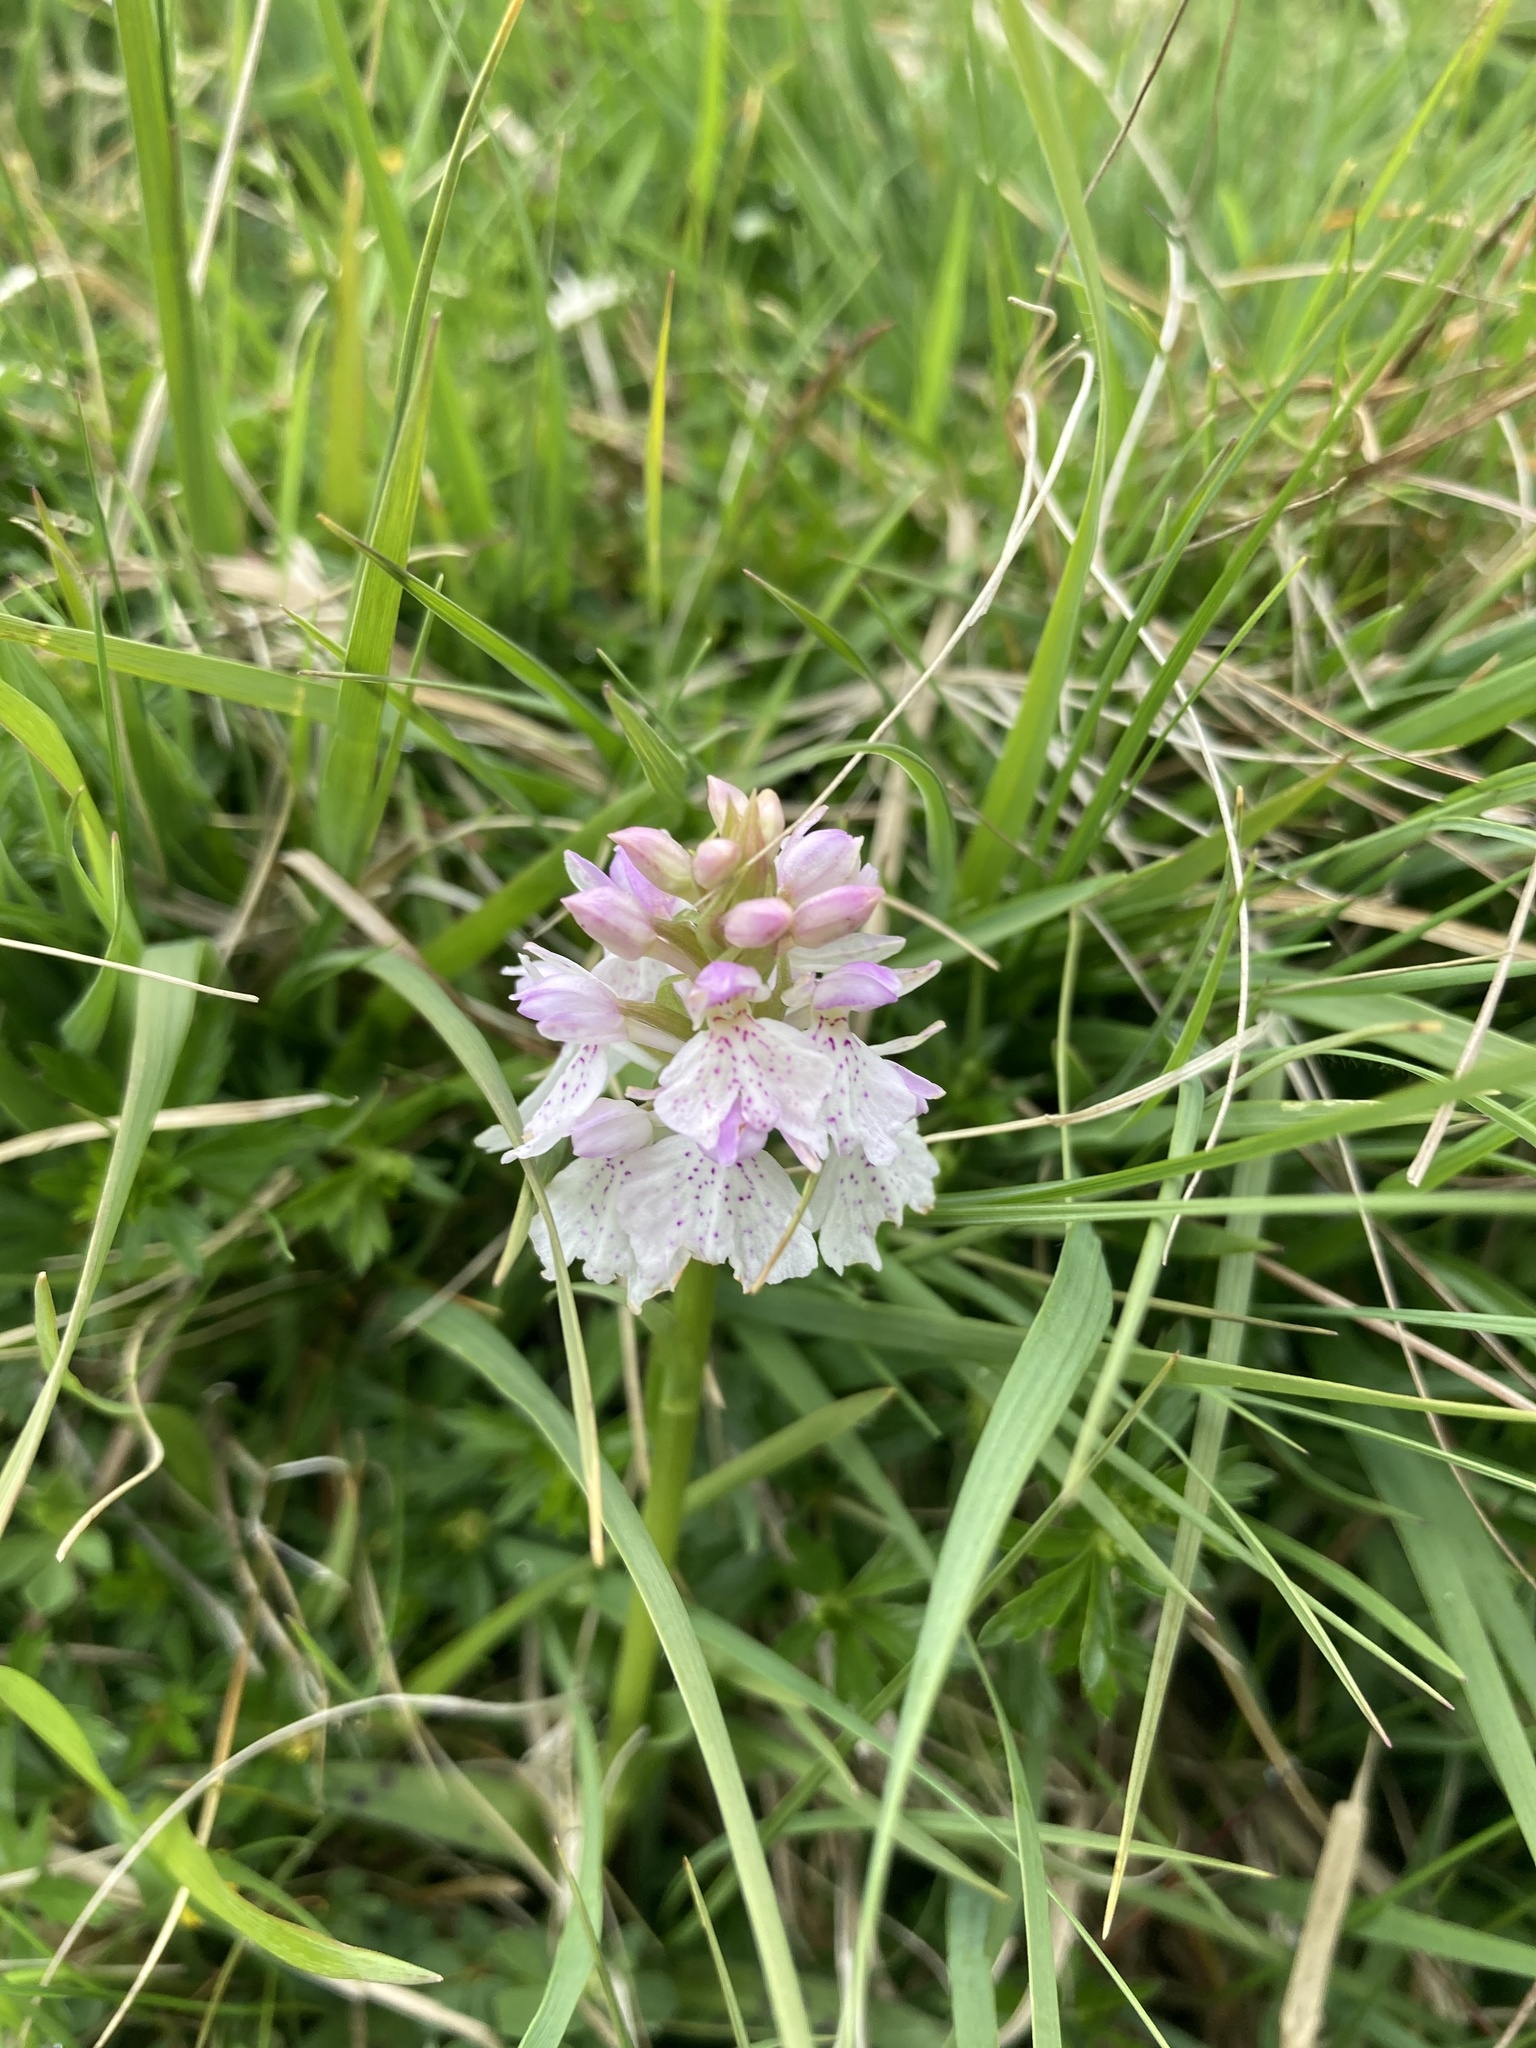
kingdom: Plantae
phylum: Tracheophyta
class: Liliopsida
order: Asparagales
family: Orchidaceae
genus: Dactylorhiza
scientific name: Dactylorhiza maculata
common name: Heath spotted-orchid
